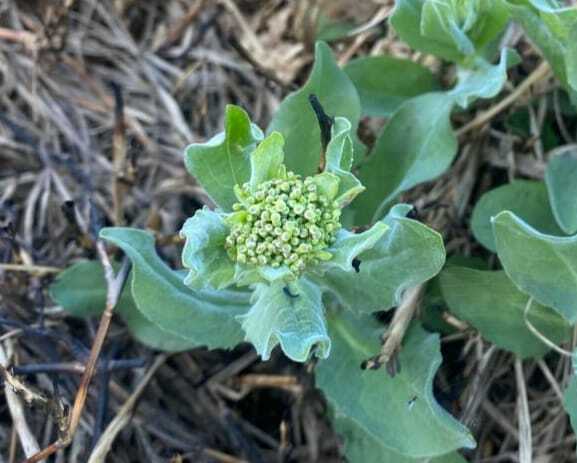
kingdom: Plantae
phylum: Tracheophyta
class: Magnoliopsida
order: Brassicales
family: Brassicaceae
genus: Lepidium
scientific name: Lepidium draba
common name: Hoary cress
